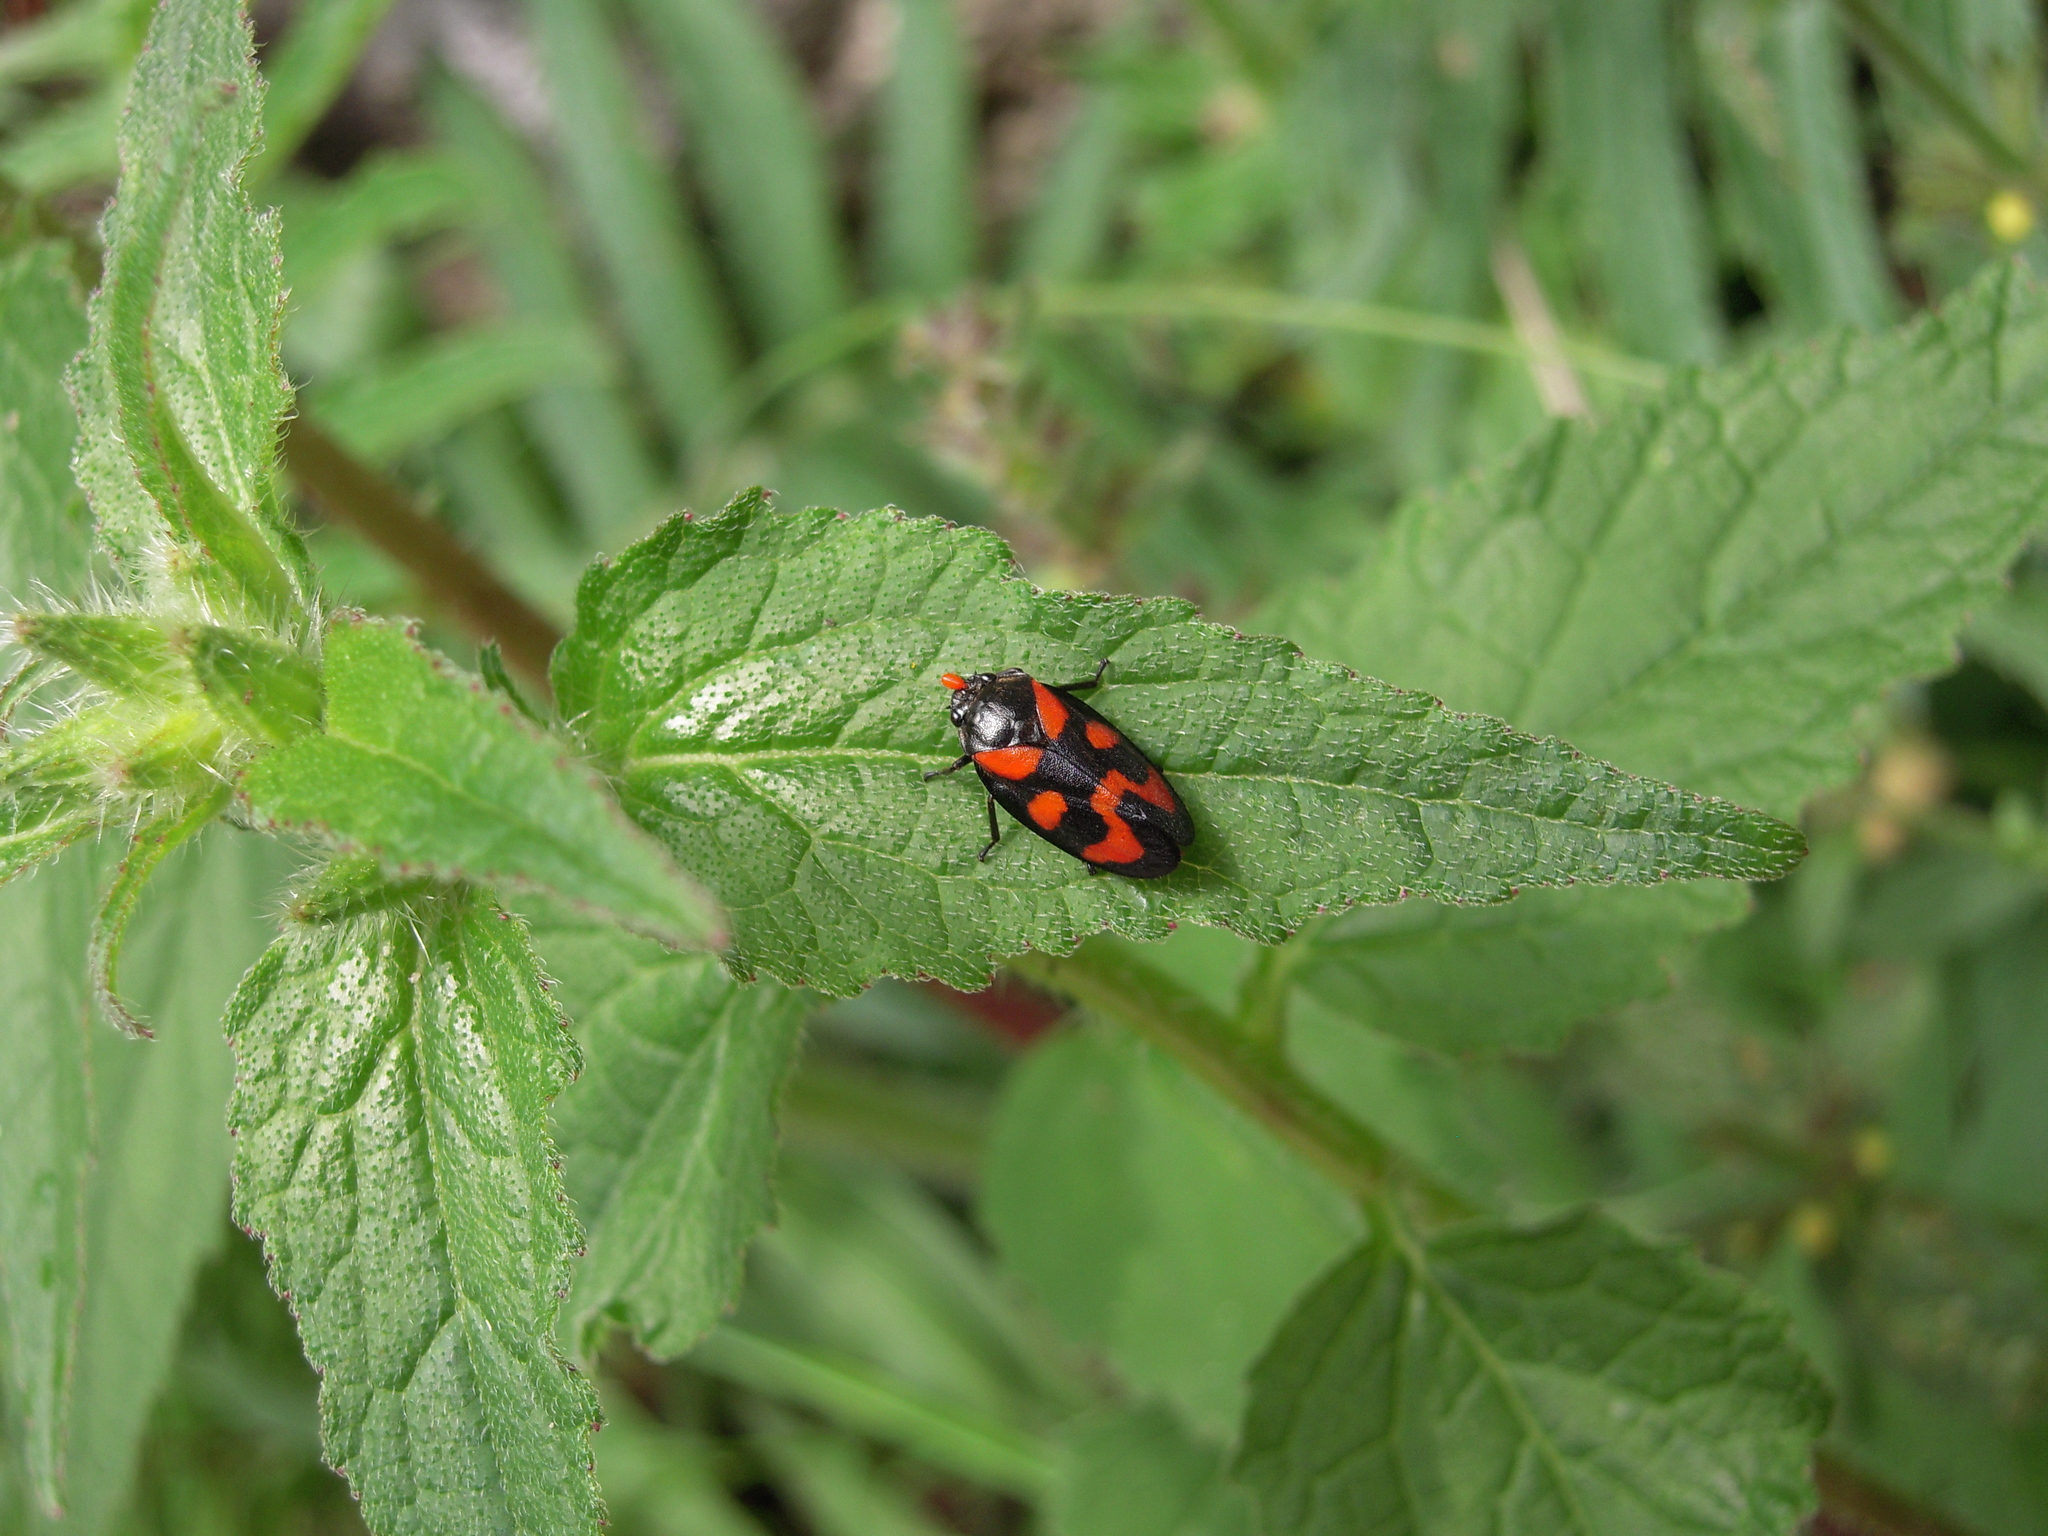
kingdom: Animalia
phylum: Arthropoda
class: Insecta
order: Hemiptera
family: Cercopidae
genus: Cercopis
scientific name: Cercopis vulnerata
